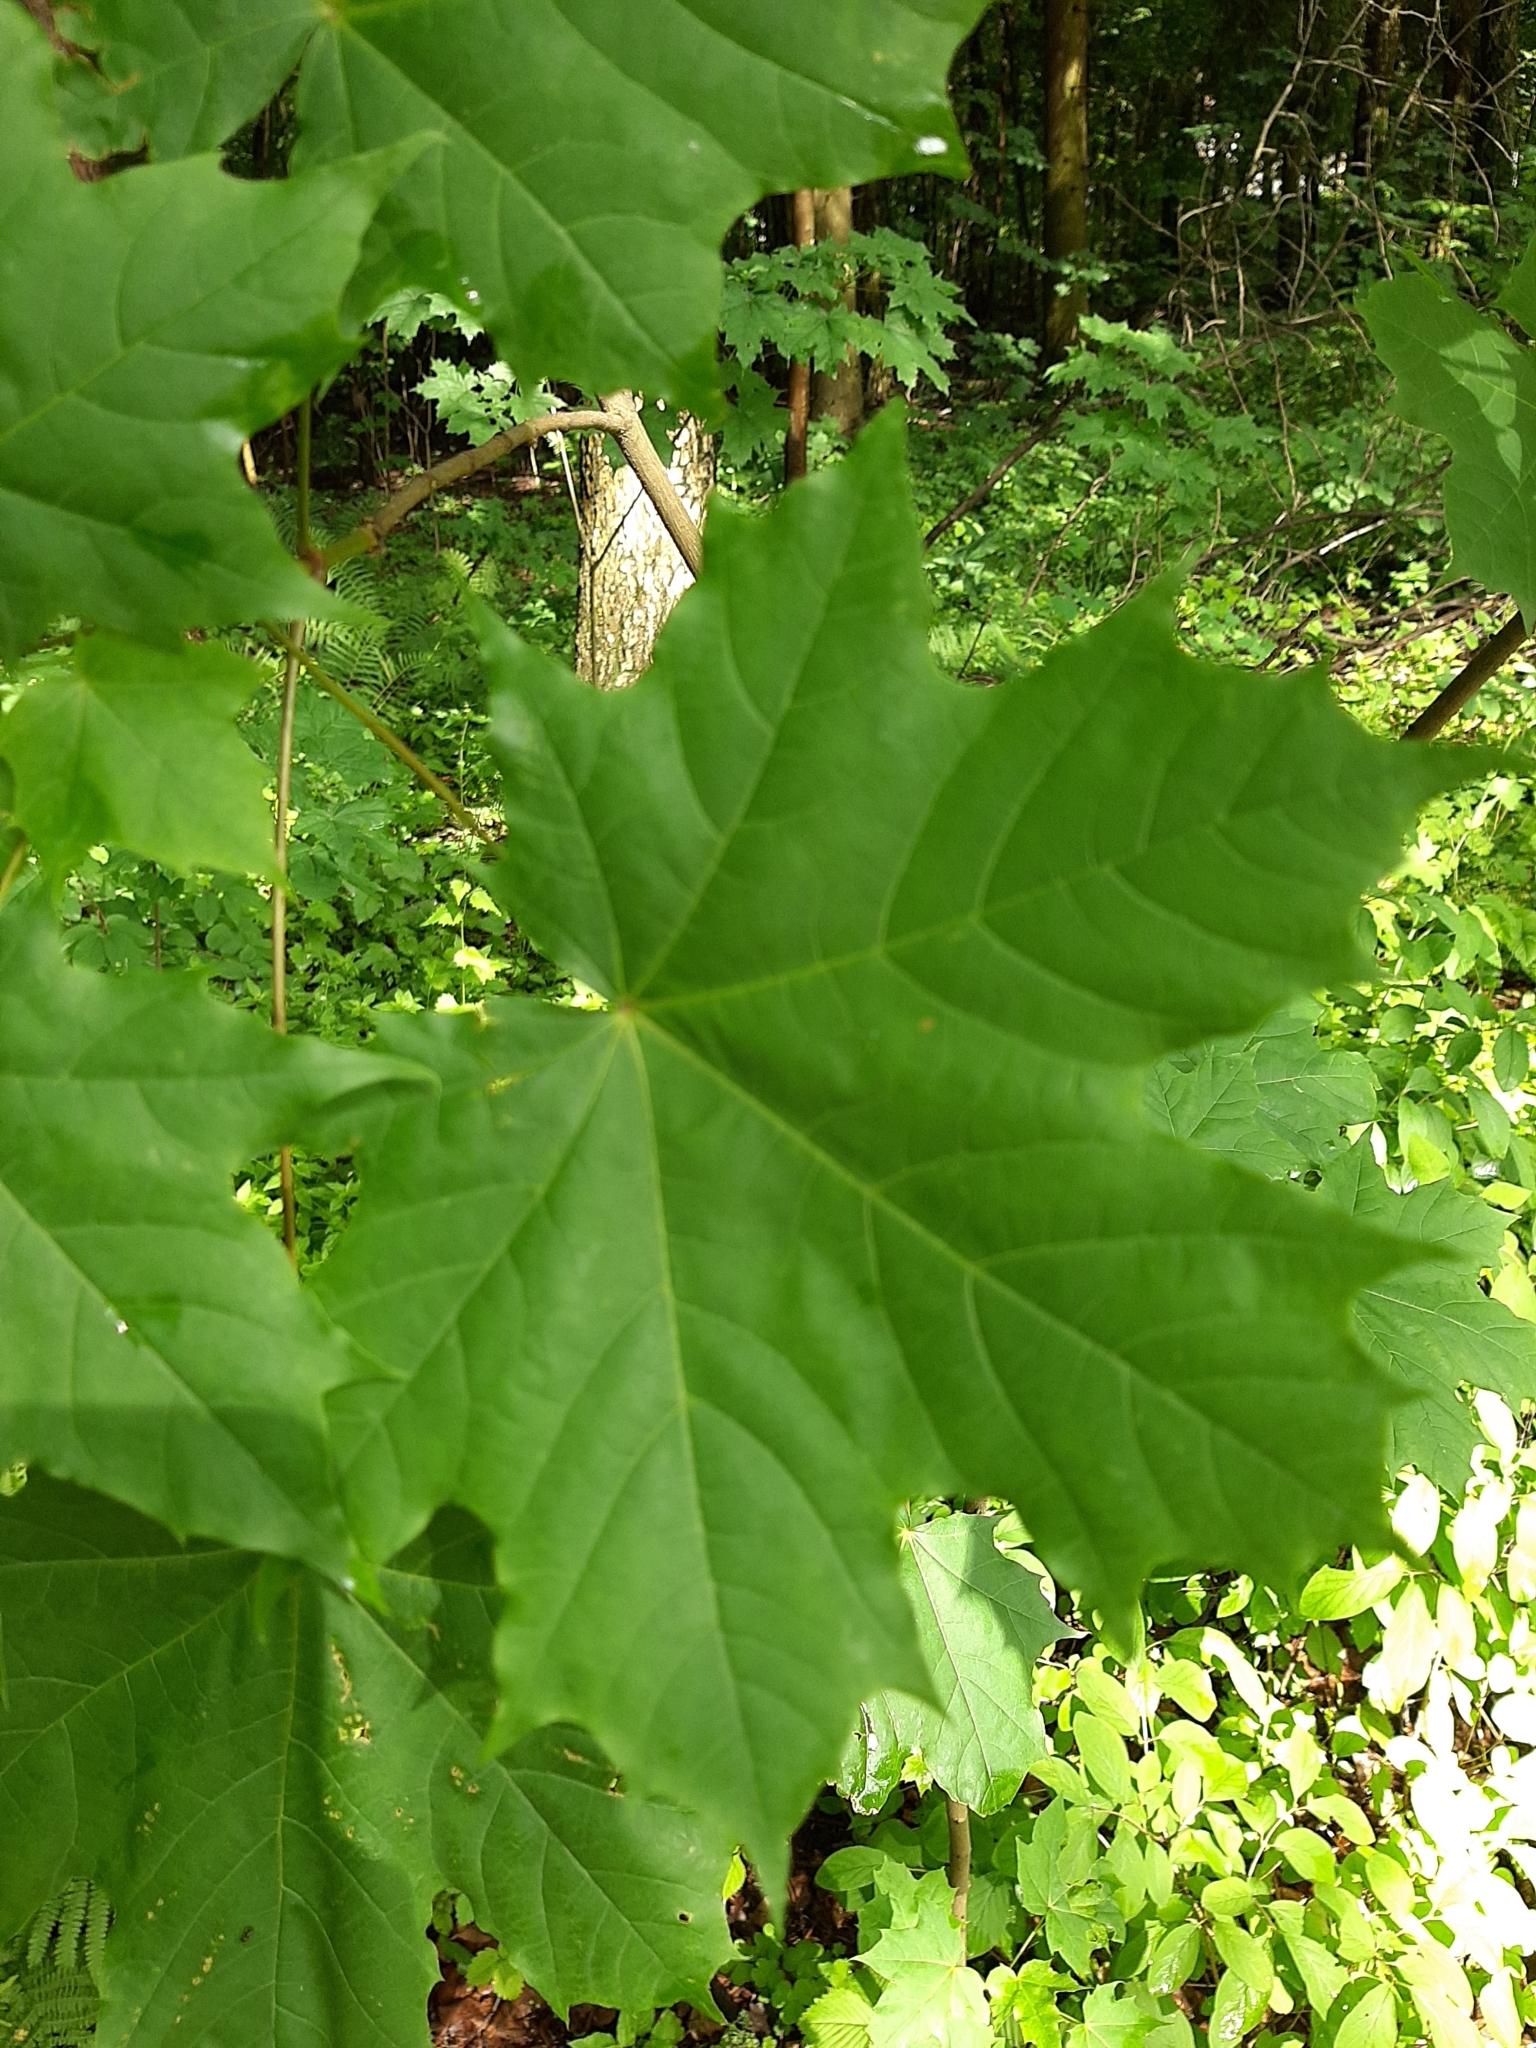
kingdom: Plantae
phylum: Tracheophyta
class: Magnoliopsida
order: Sapindales
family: Sapindaceae
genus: Acer
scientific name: Acer platanoides
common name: Norway maple
